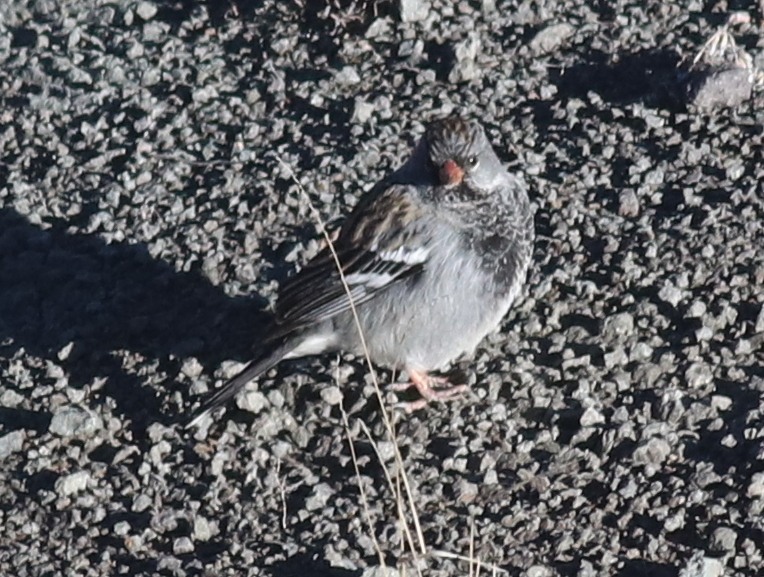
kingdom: Animalia
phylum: Chordata
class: Aves
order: Passeriformes
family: Thraupidae
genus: Rhopospina
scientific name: Rhopospina fruticeti
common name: Mourning sierra finch
